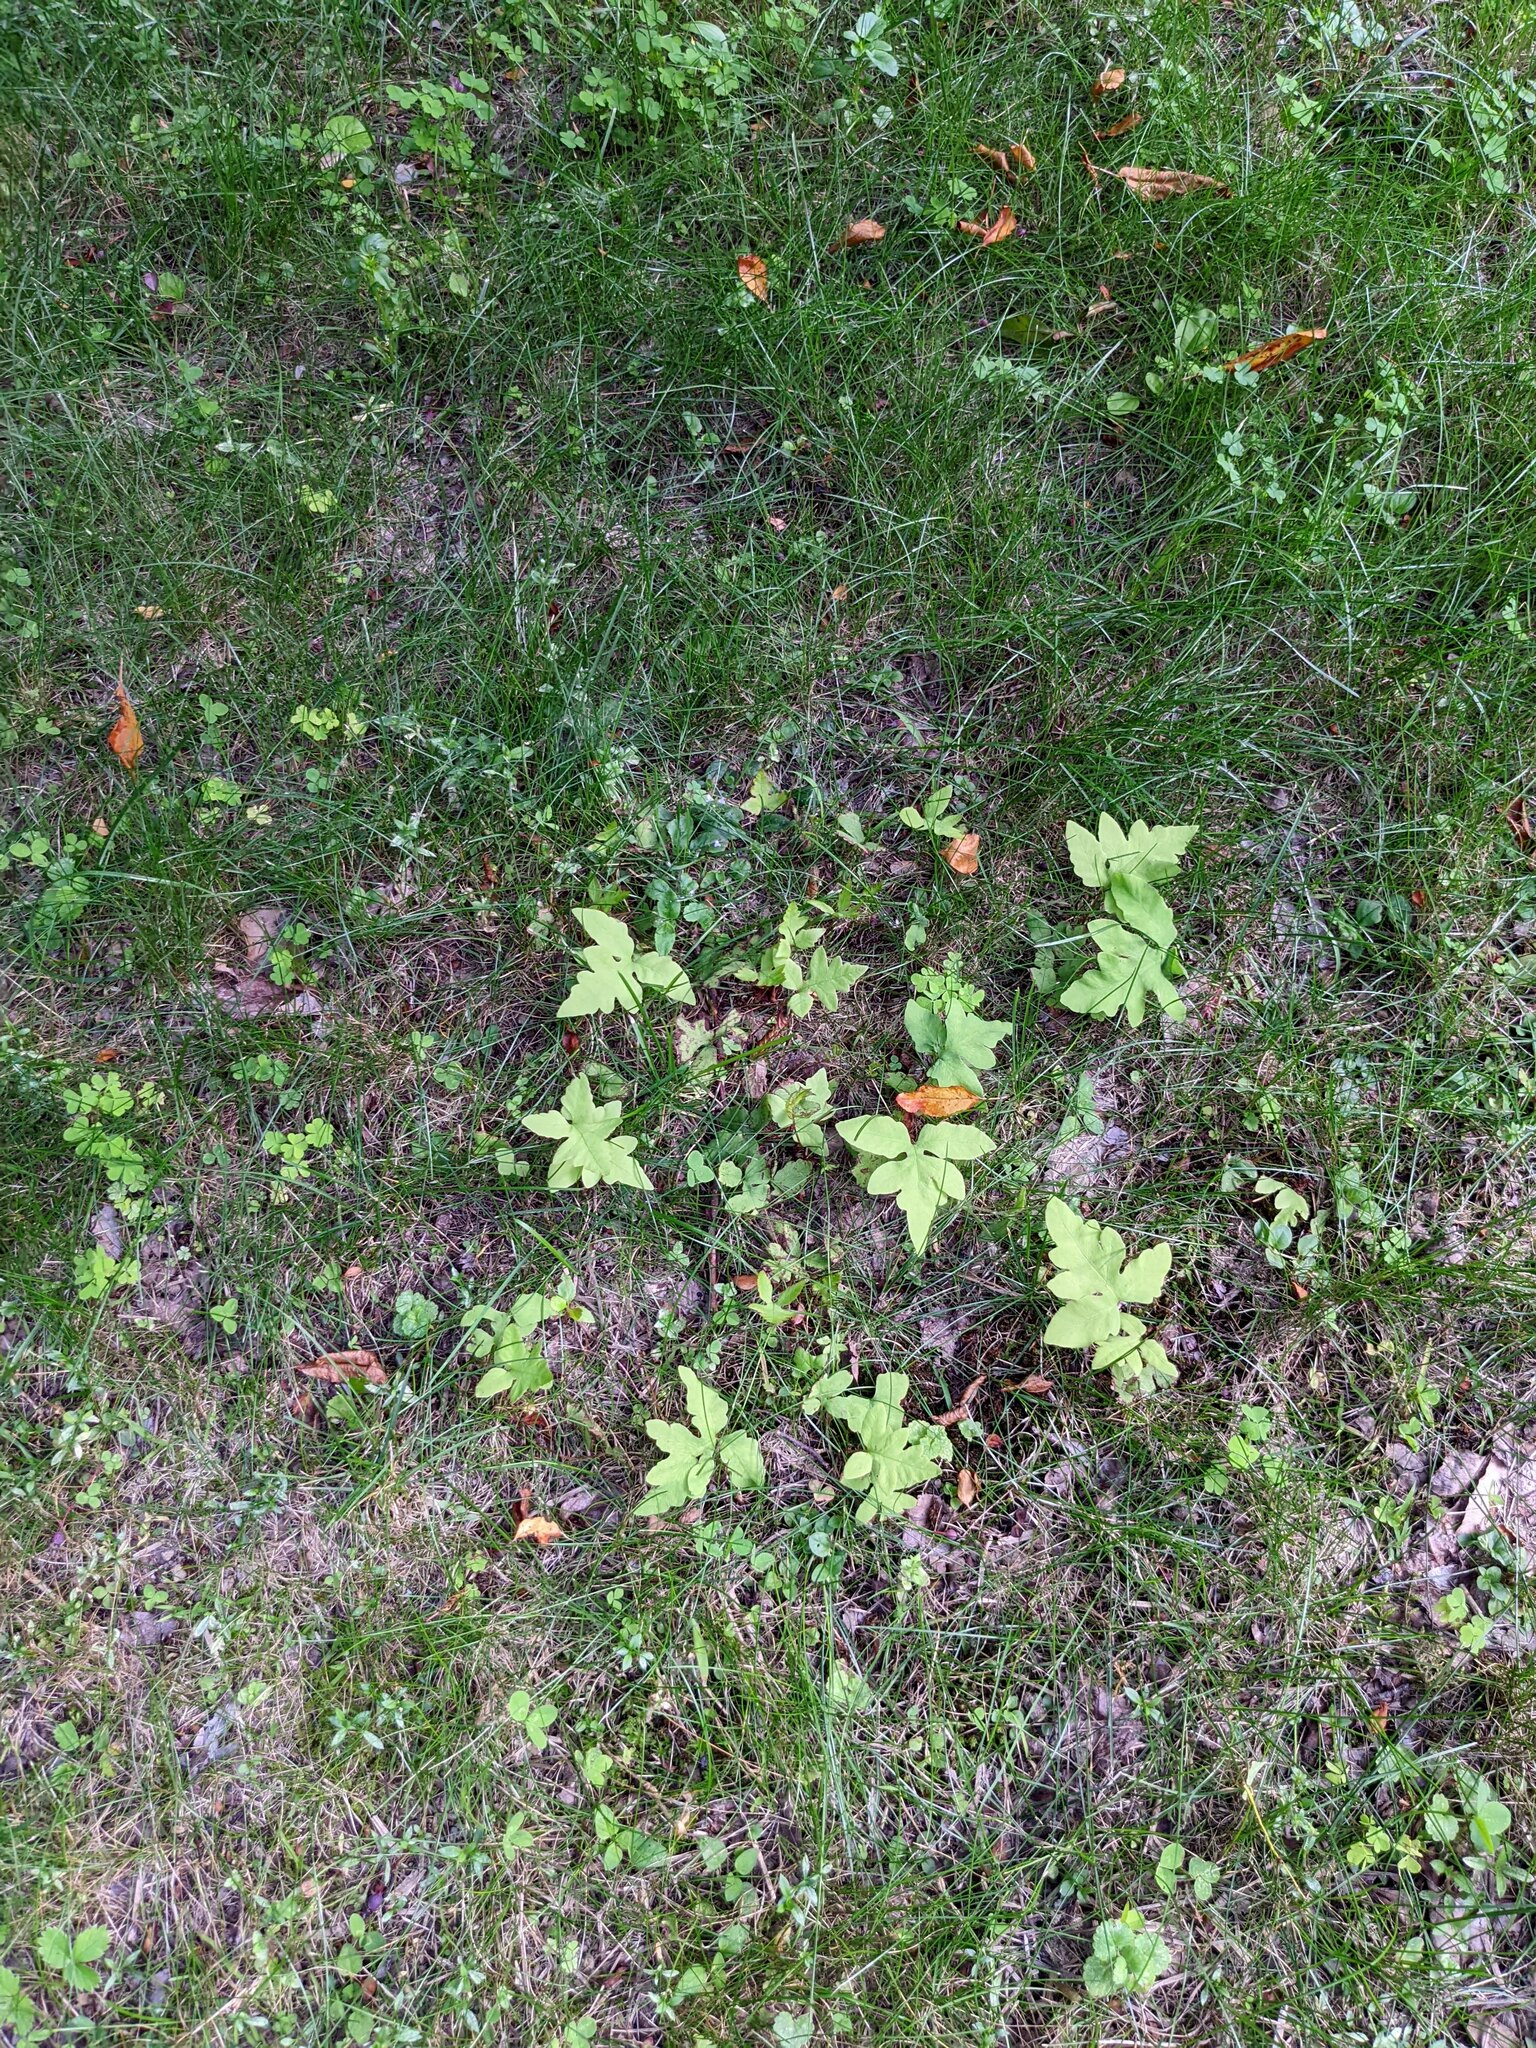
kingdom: Plantae
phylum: Tracheophyta
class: Polypodiopsida
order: Polypodiales
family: Onocleaceae
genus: Onoclea
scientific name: Onoclea sensibilis
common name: Sensitive fern
